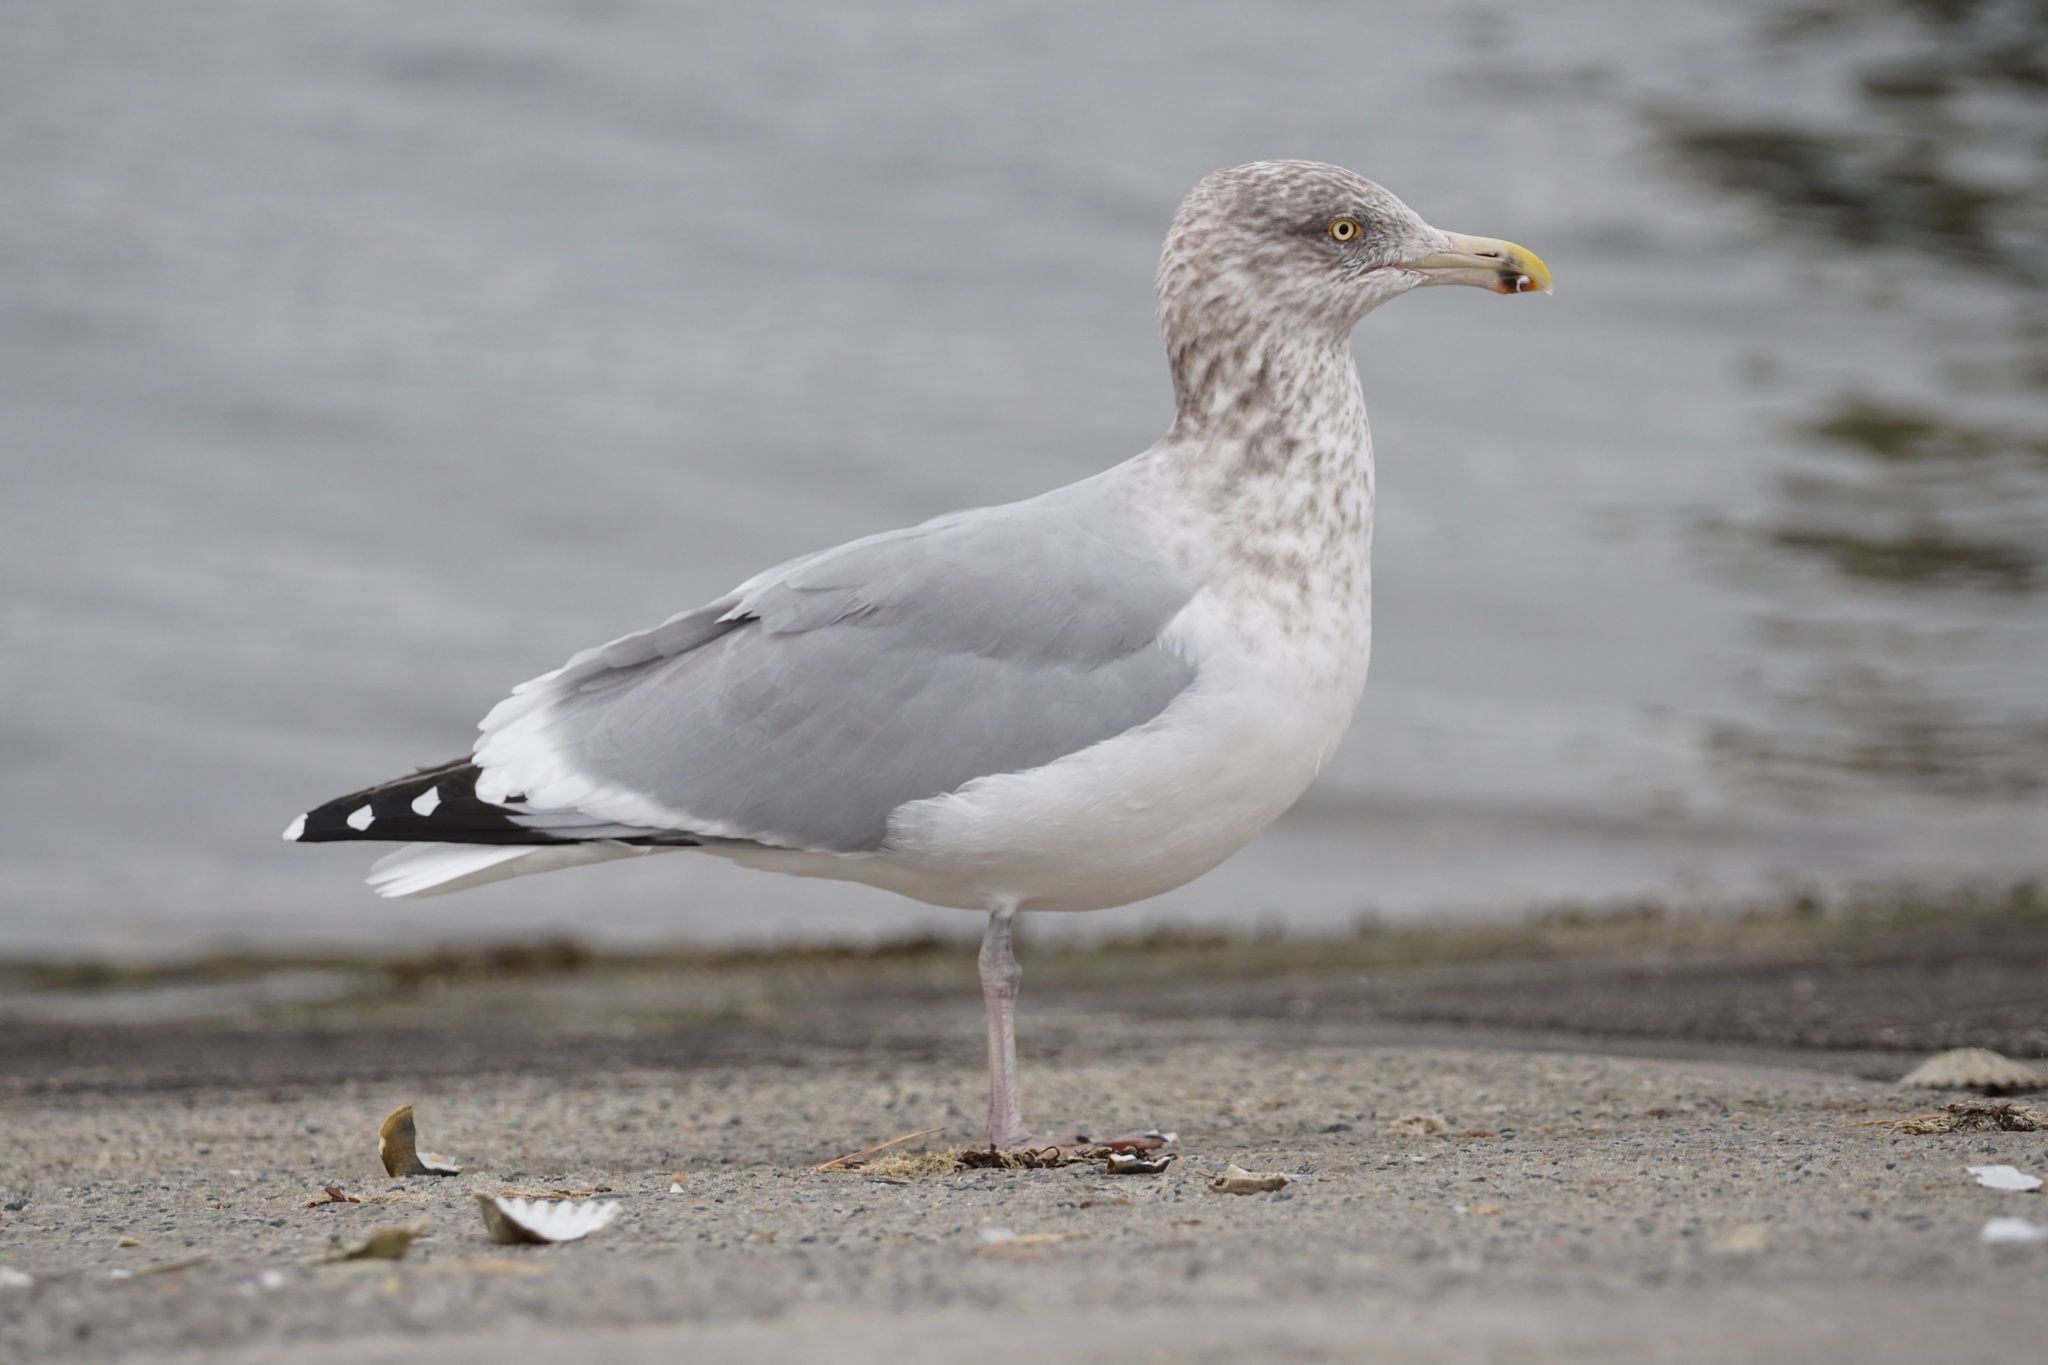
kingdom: Animalia
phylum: Chordata
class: Aves
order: Charadriiformes
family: Laridae
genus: Larus
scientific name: Larus argentatus
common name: Herring gull
